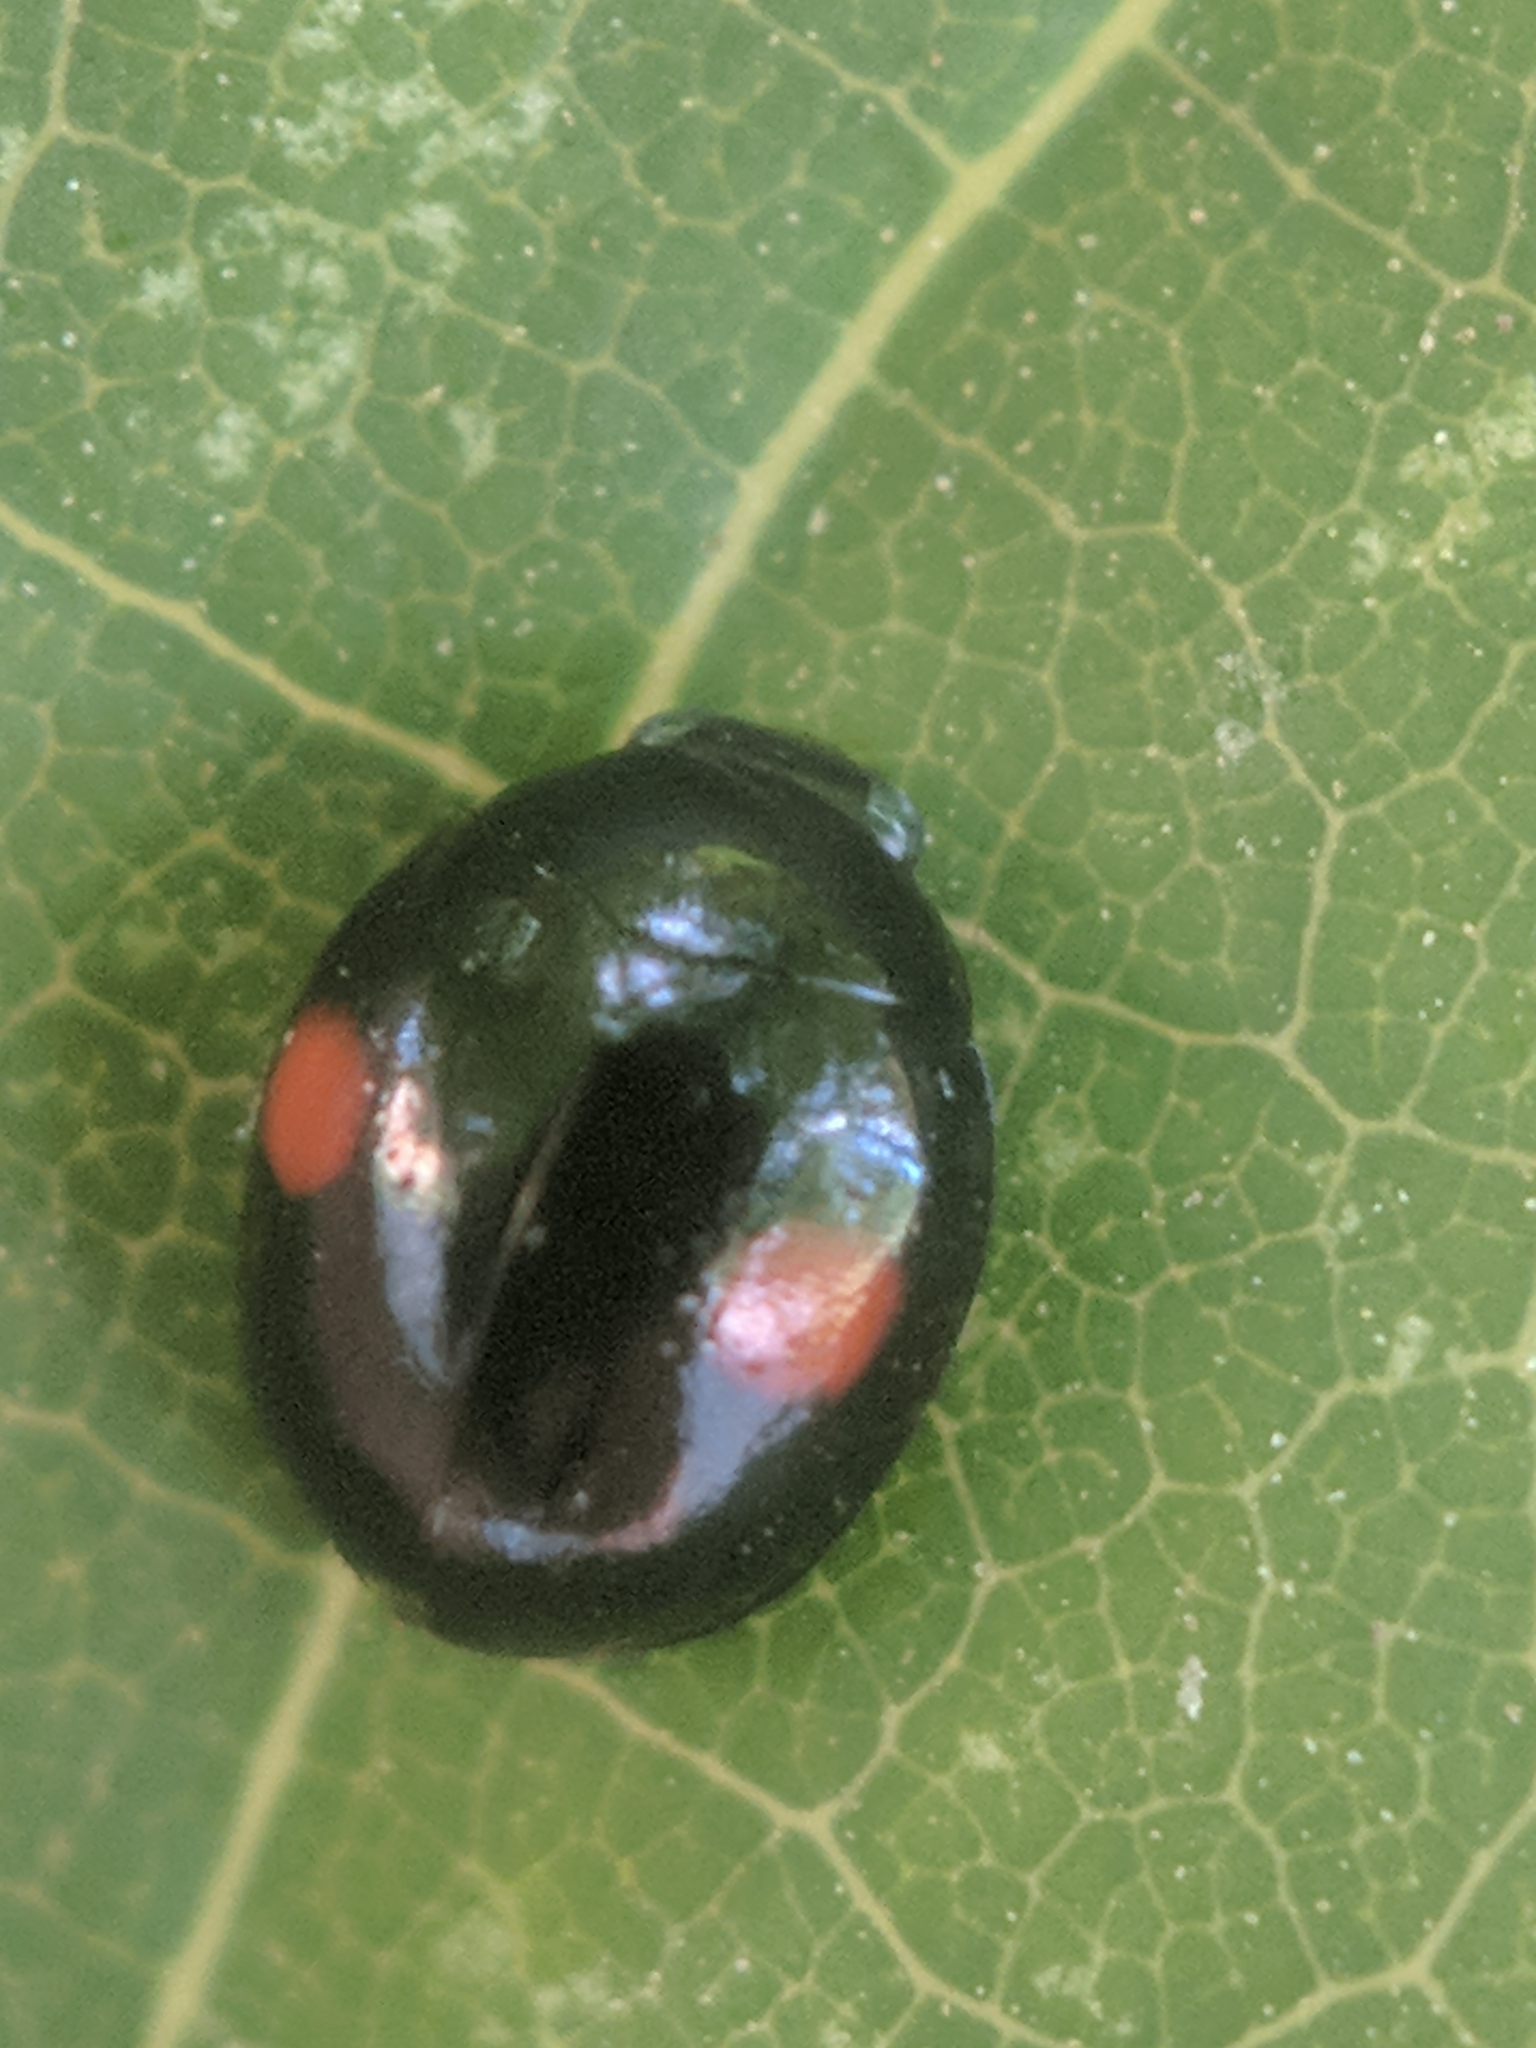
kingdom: Animalia
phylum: Arthropoda
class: Insecta
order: Coleoptera
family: Coccinellidae
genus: Chilocorus
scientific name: Chilocorus stigma
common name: Twicestabbed lady beetle
